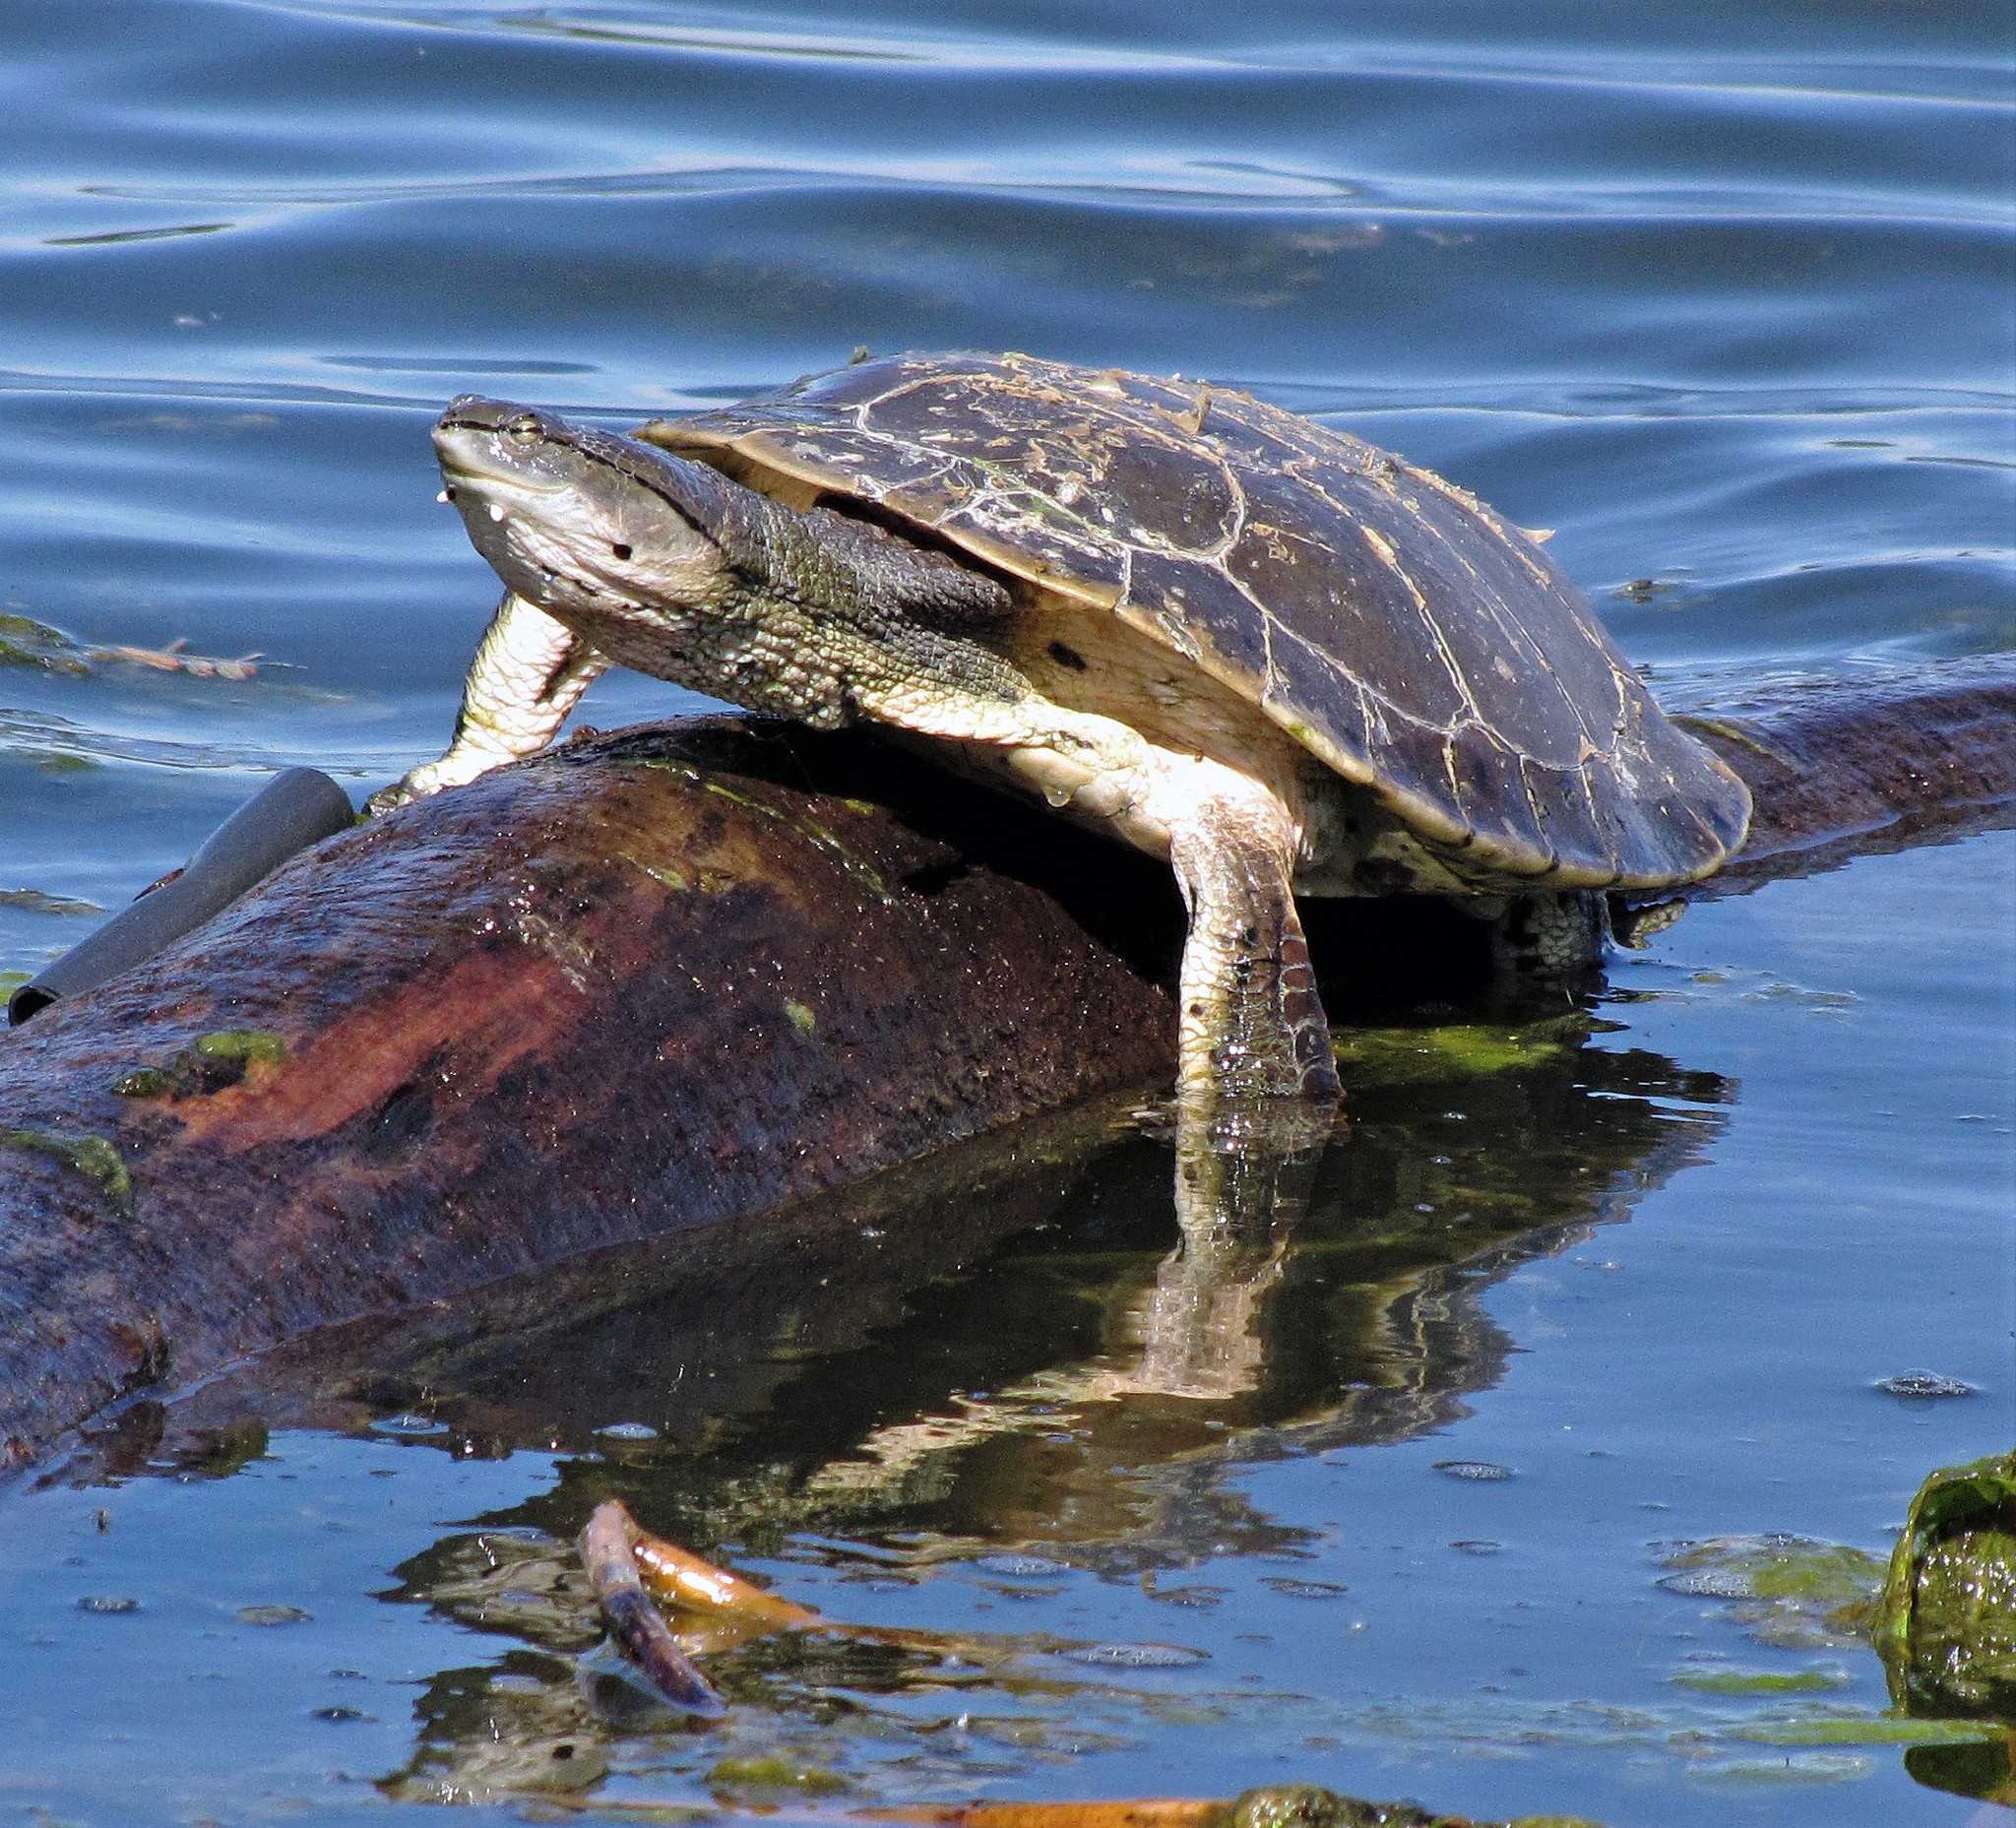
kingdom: Animalia
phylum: Chordata
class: Testudines
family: Chelidae
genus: Phrynops
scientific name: Phrynops hilarii
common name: Side-necked turtle of saint hillaire
